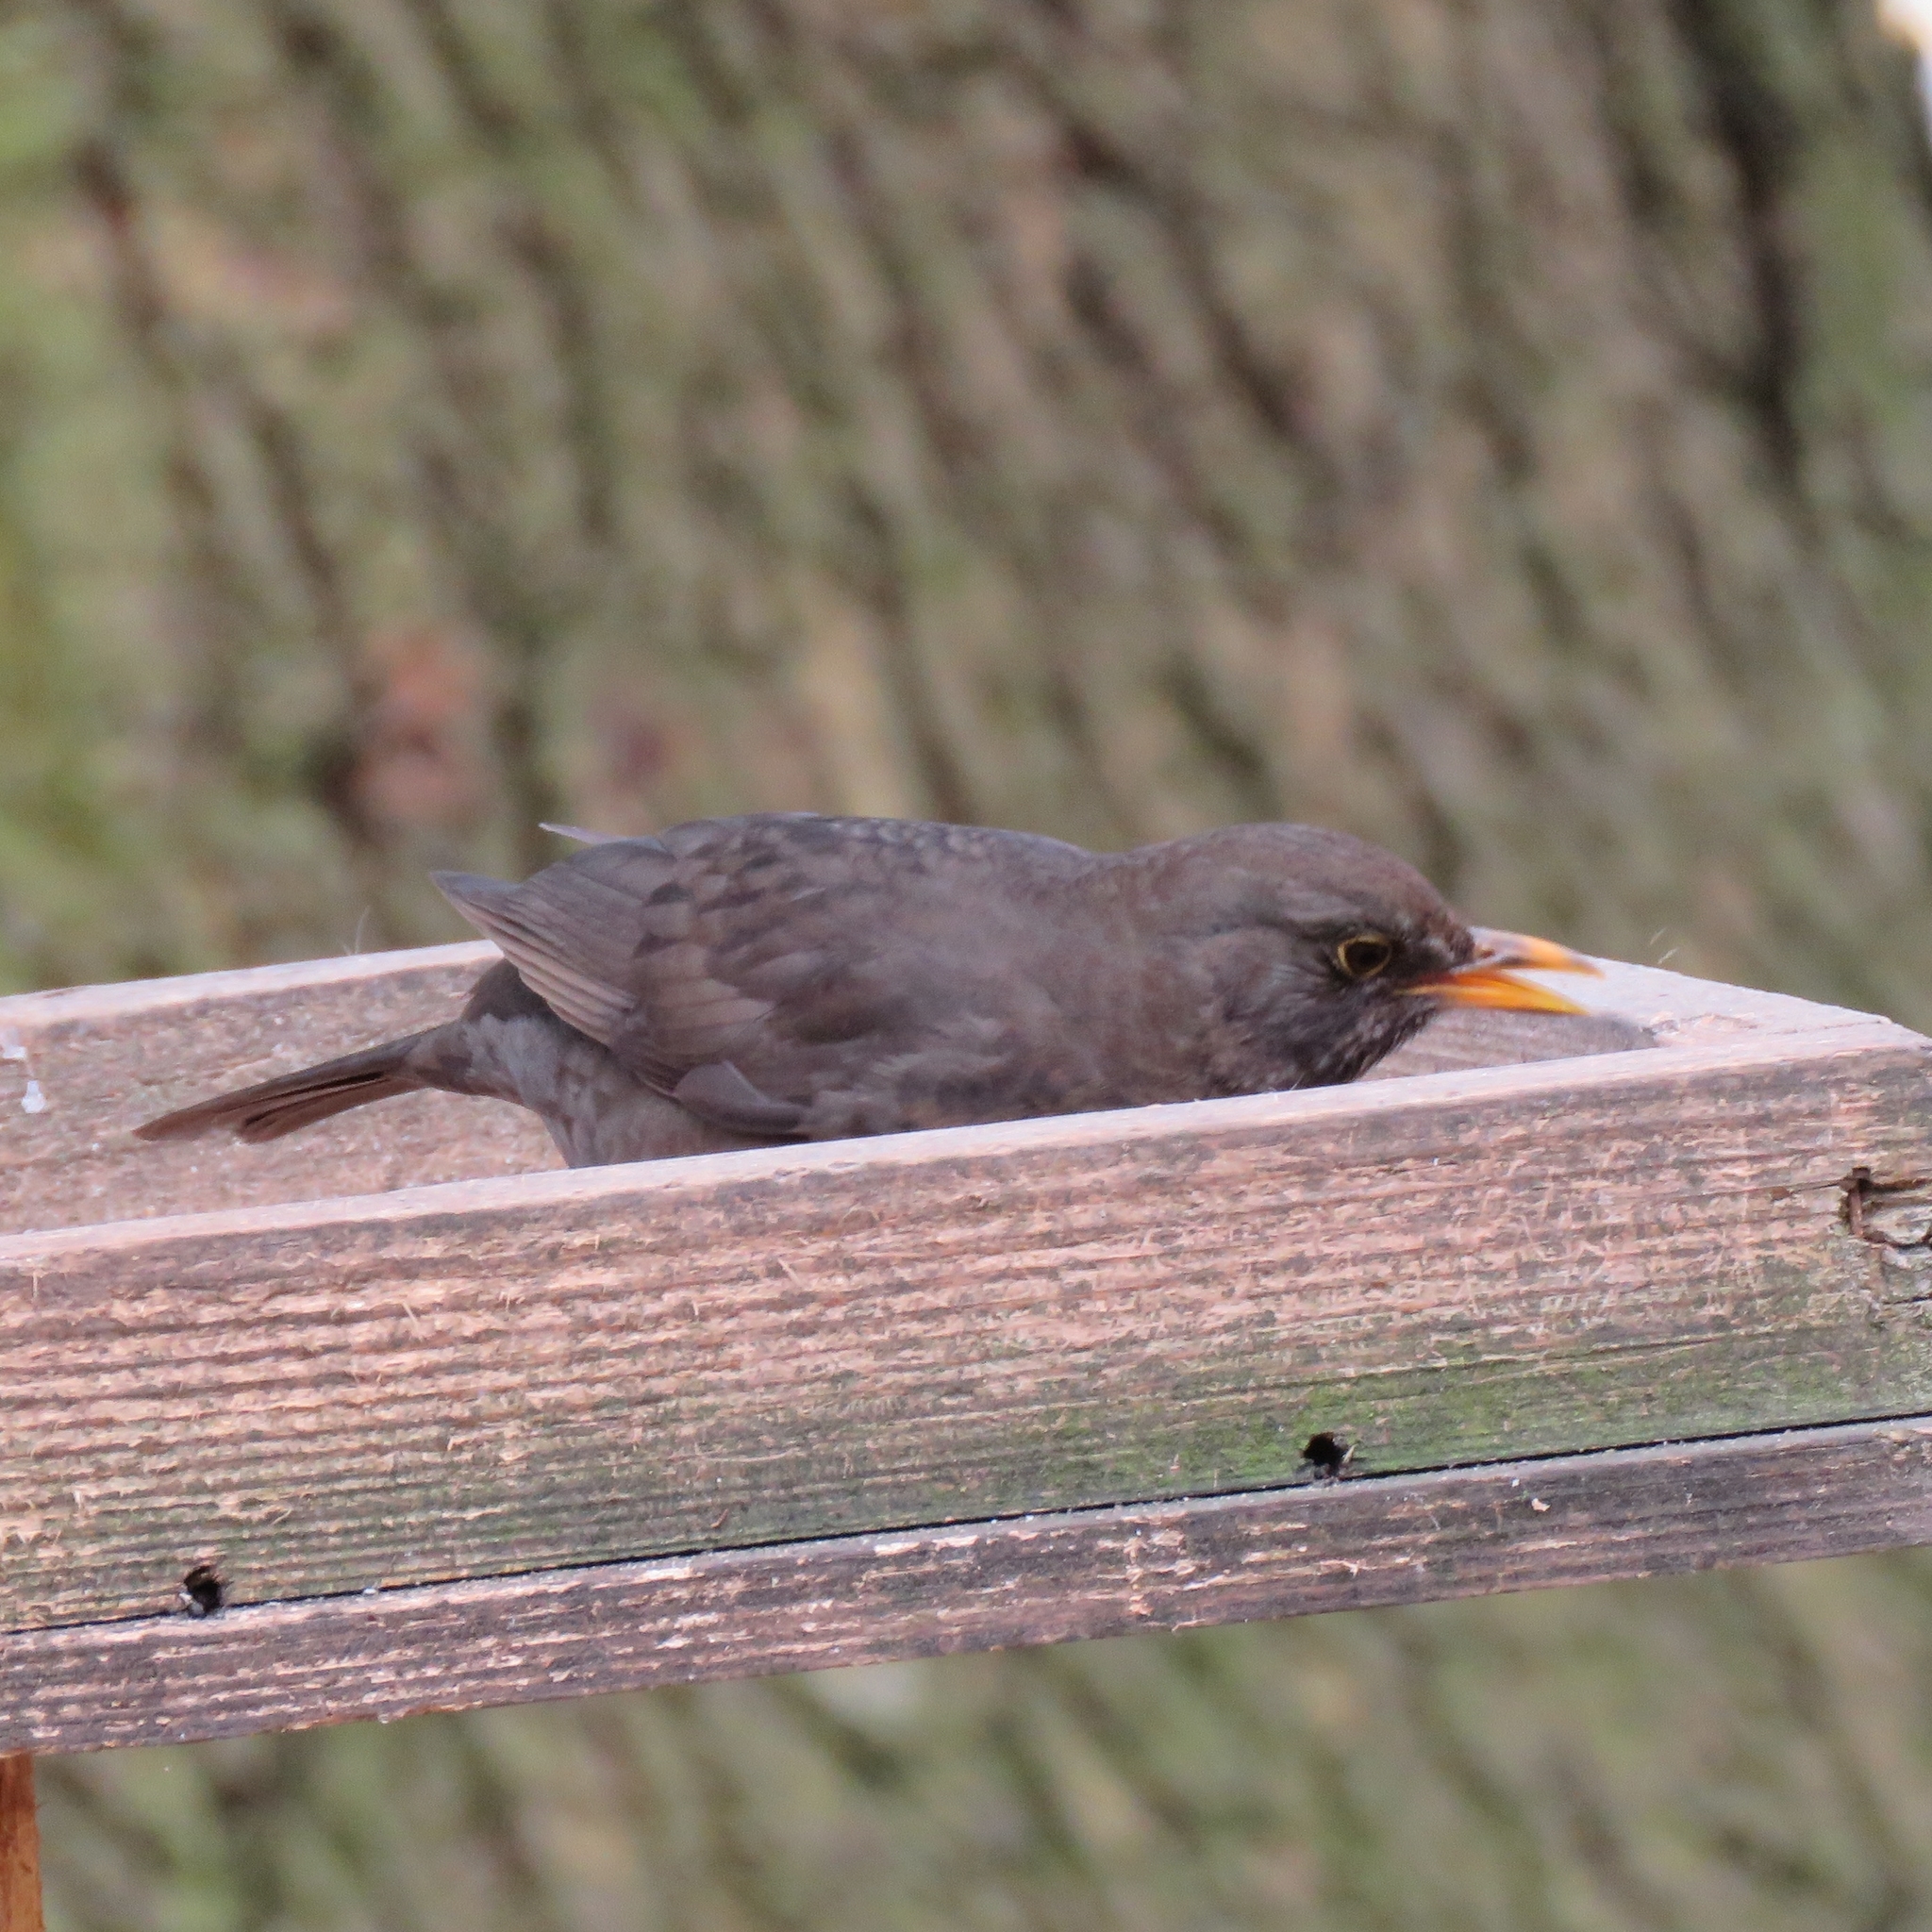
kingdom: Animalia
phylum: Chordata
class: Aves
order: Passeriformes
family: Turdidae
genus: Turdus
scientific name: Turdus merula
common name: Common blackbird
